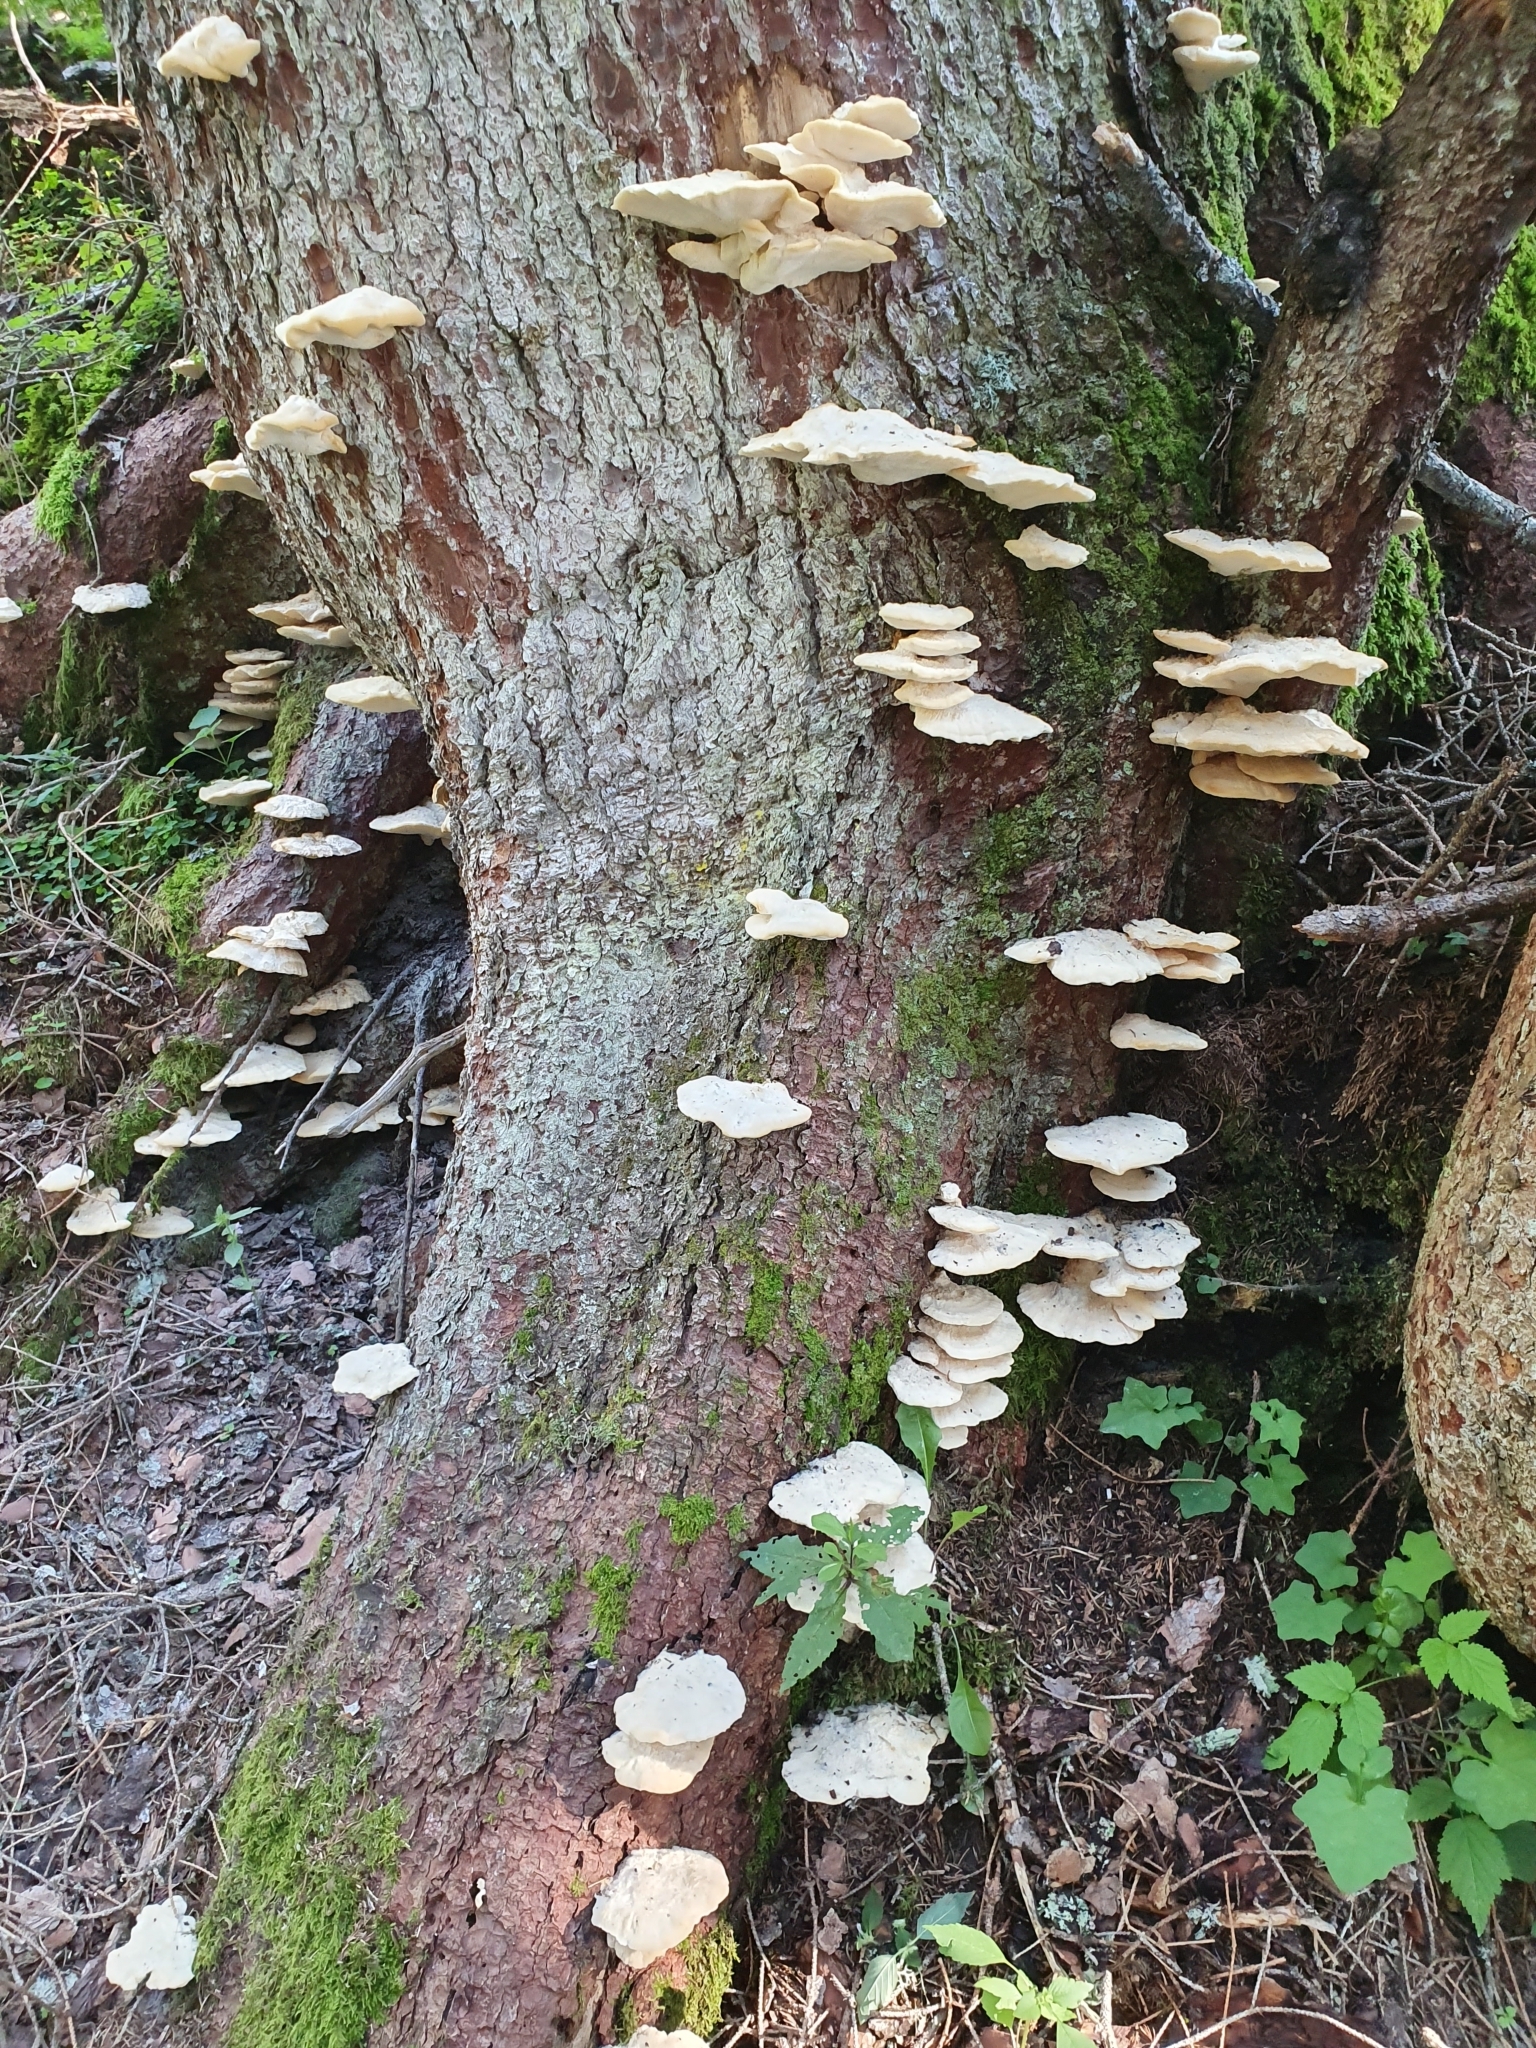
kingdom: Fungi
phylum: Basidiomycota
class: Agaricomycetes
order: Polyporales
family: Fomitopsidaceae
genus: Climacocystis
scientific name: Climacocystis borealis
